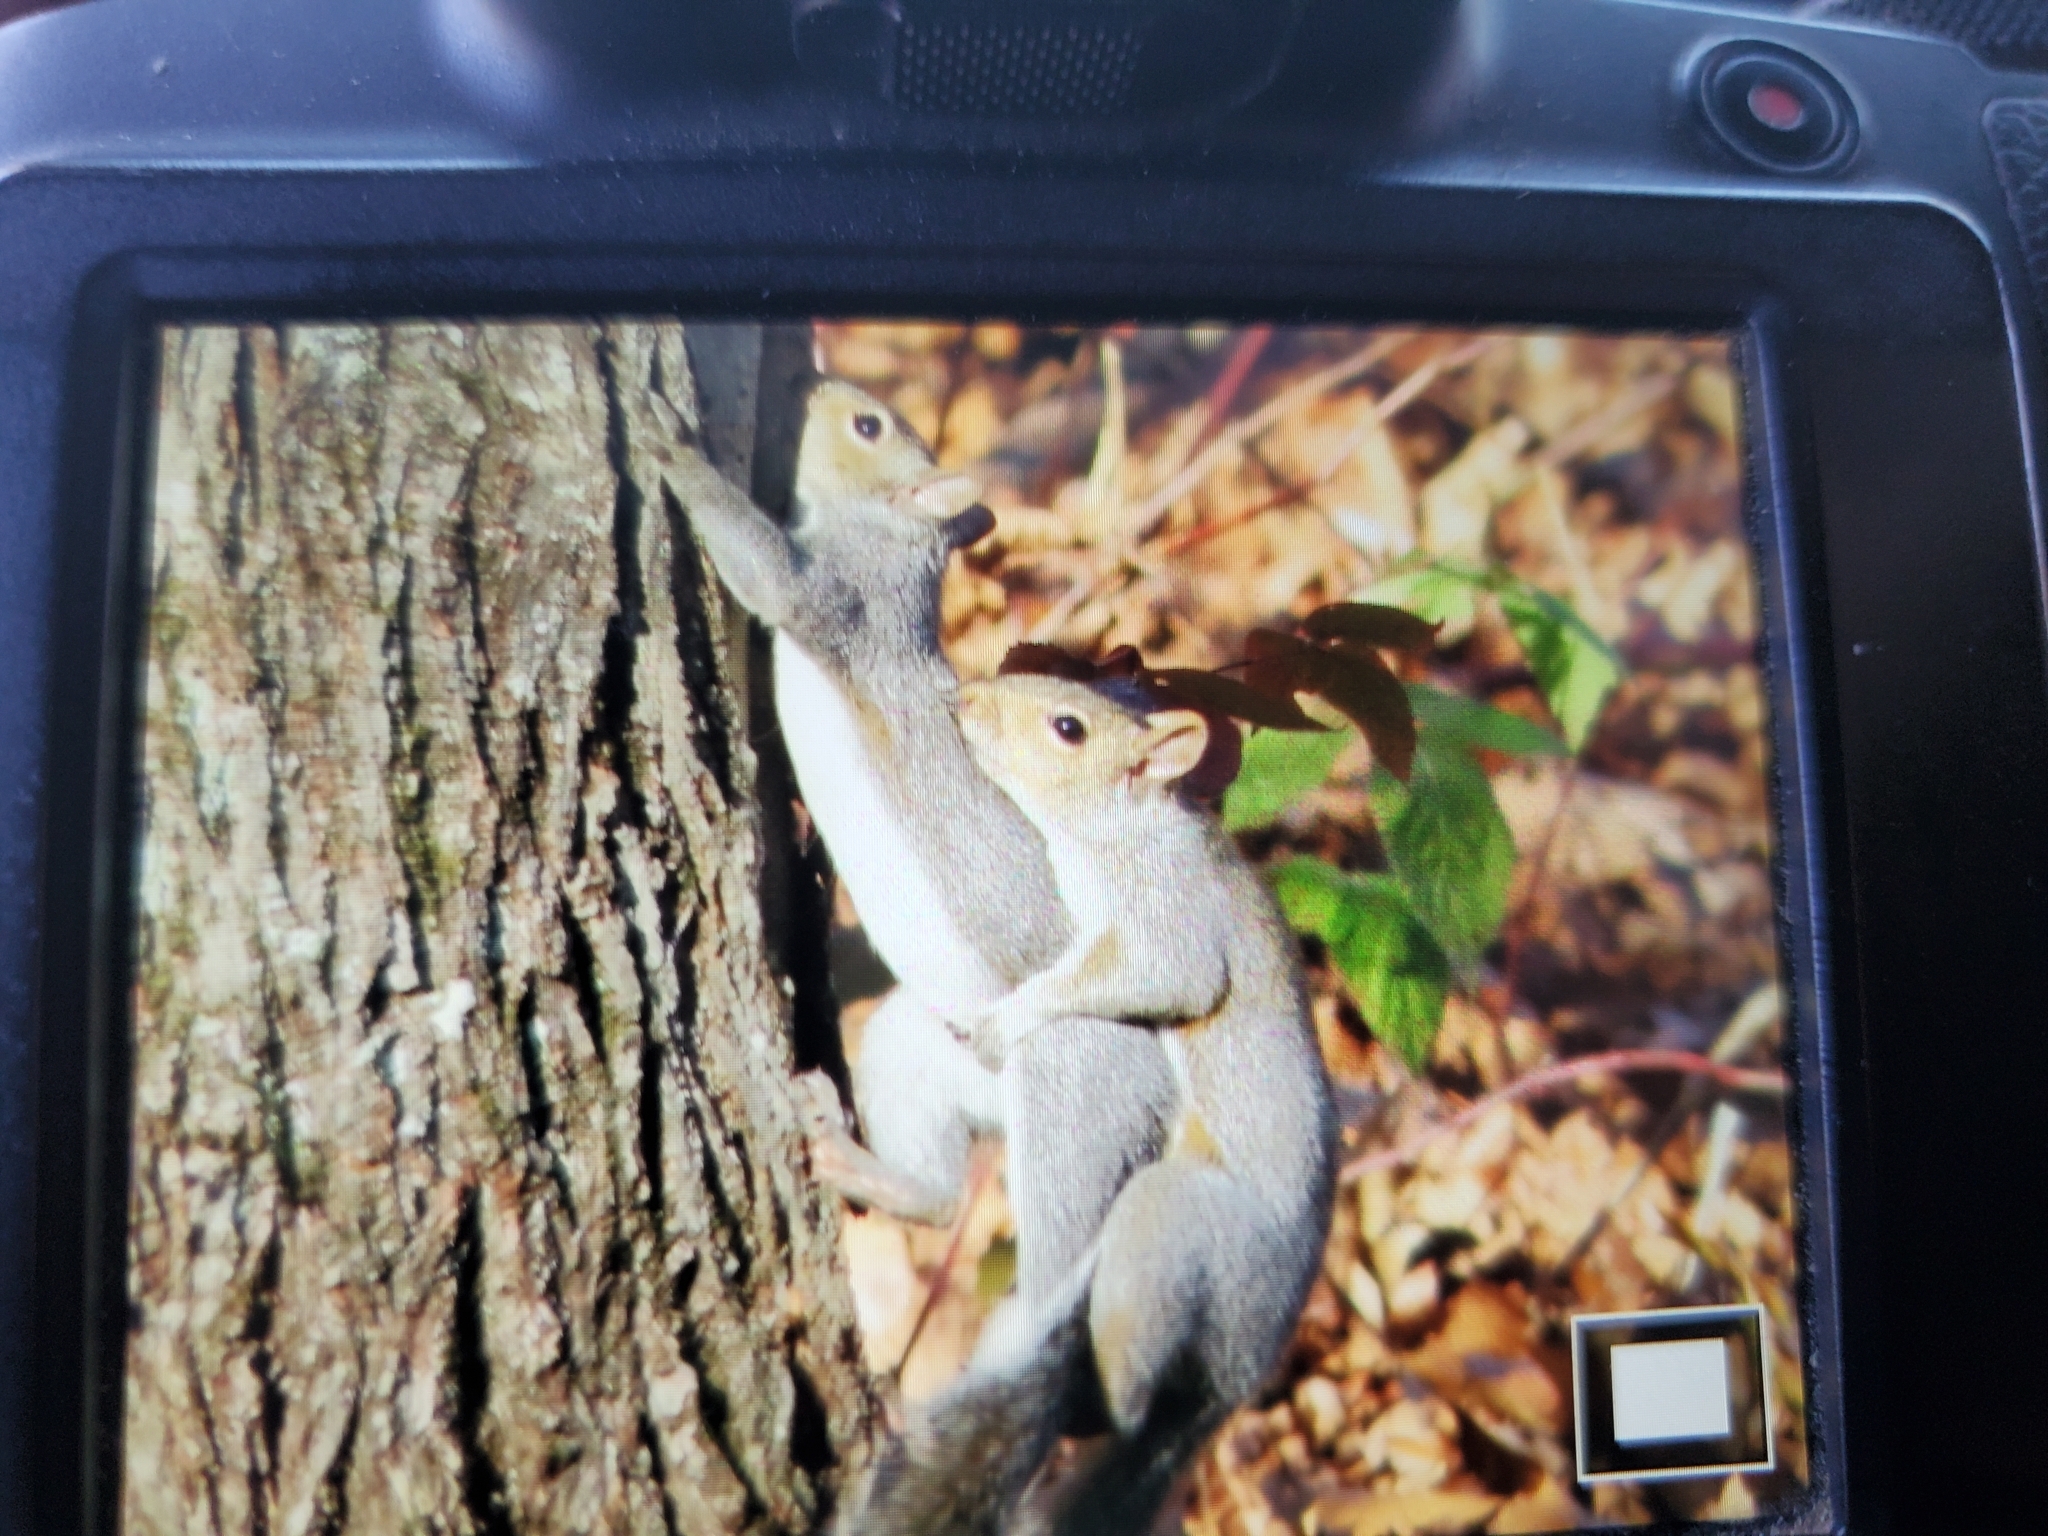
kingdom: Animalia
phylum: Chordata
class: Mammalia
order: Rodentia
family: Sciuridae
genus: Sciurus
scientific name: Sciurus carolinensis
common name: Eastern gray squirrel
